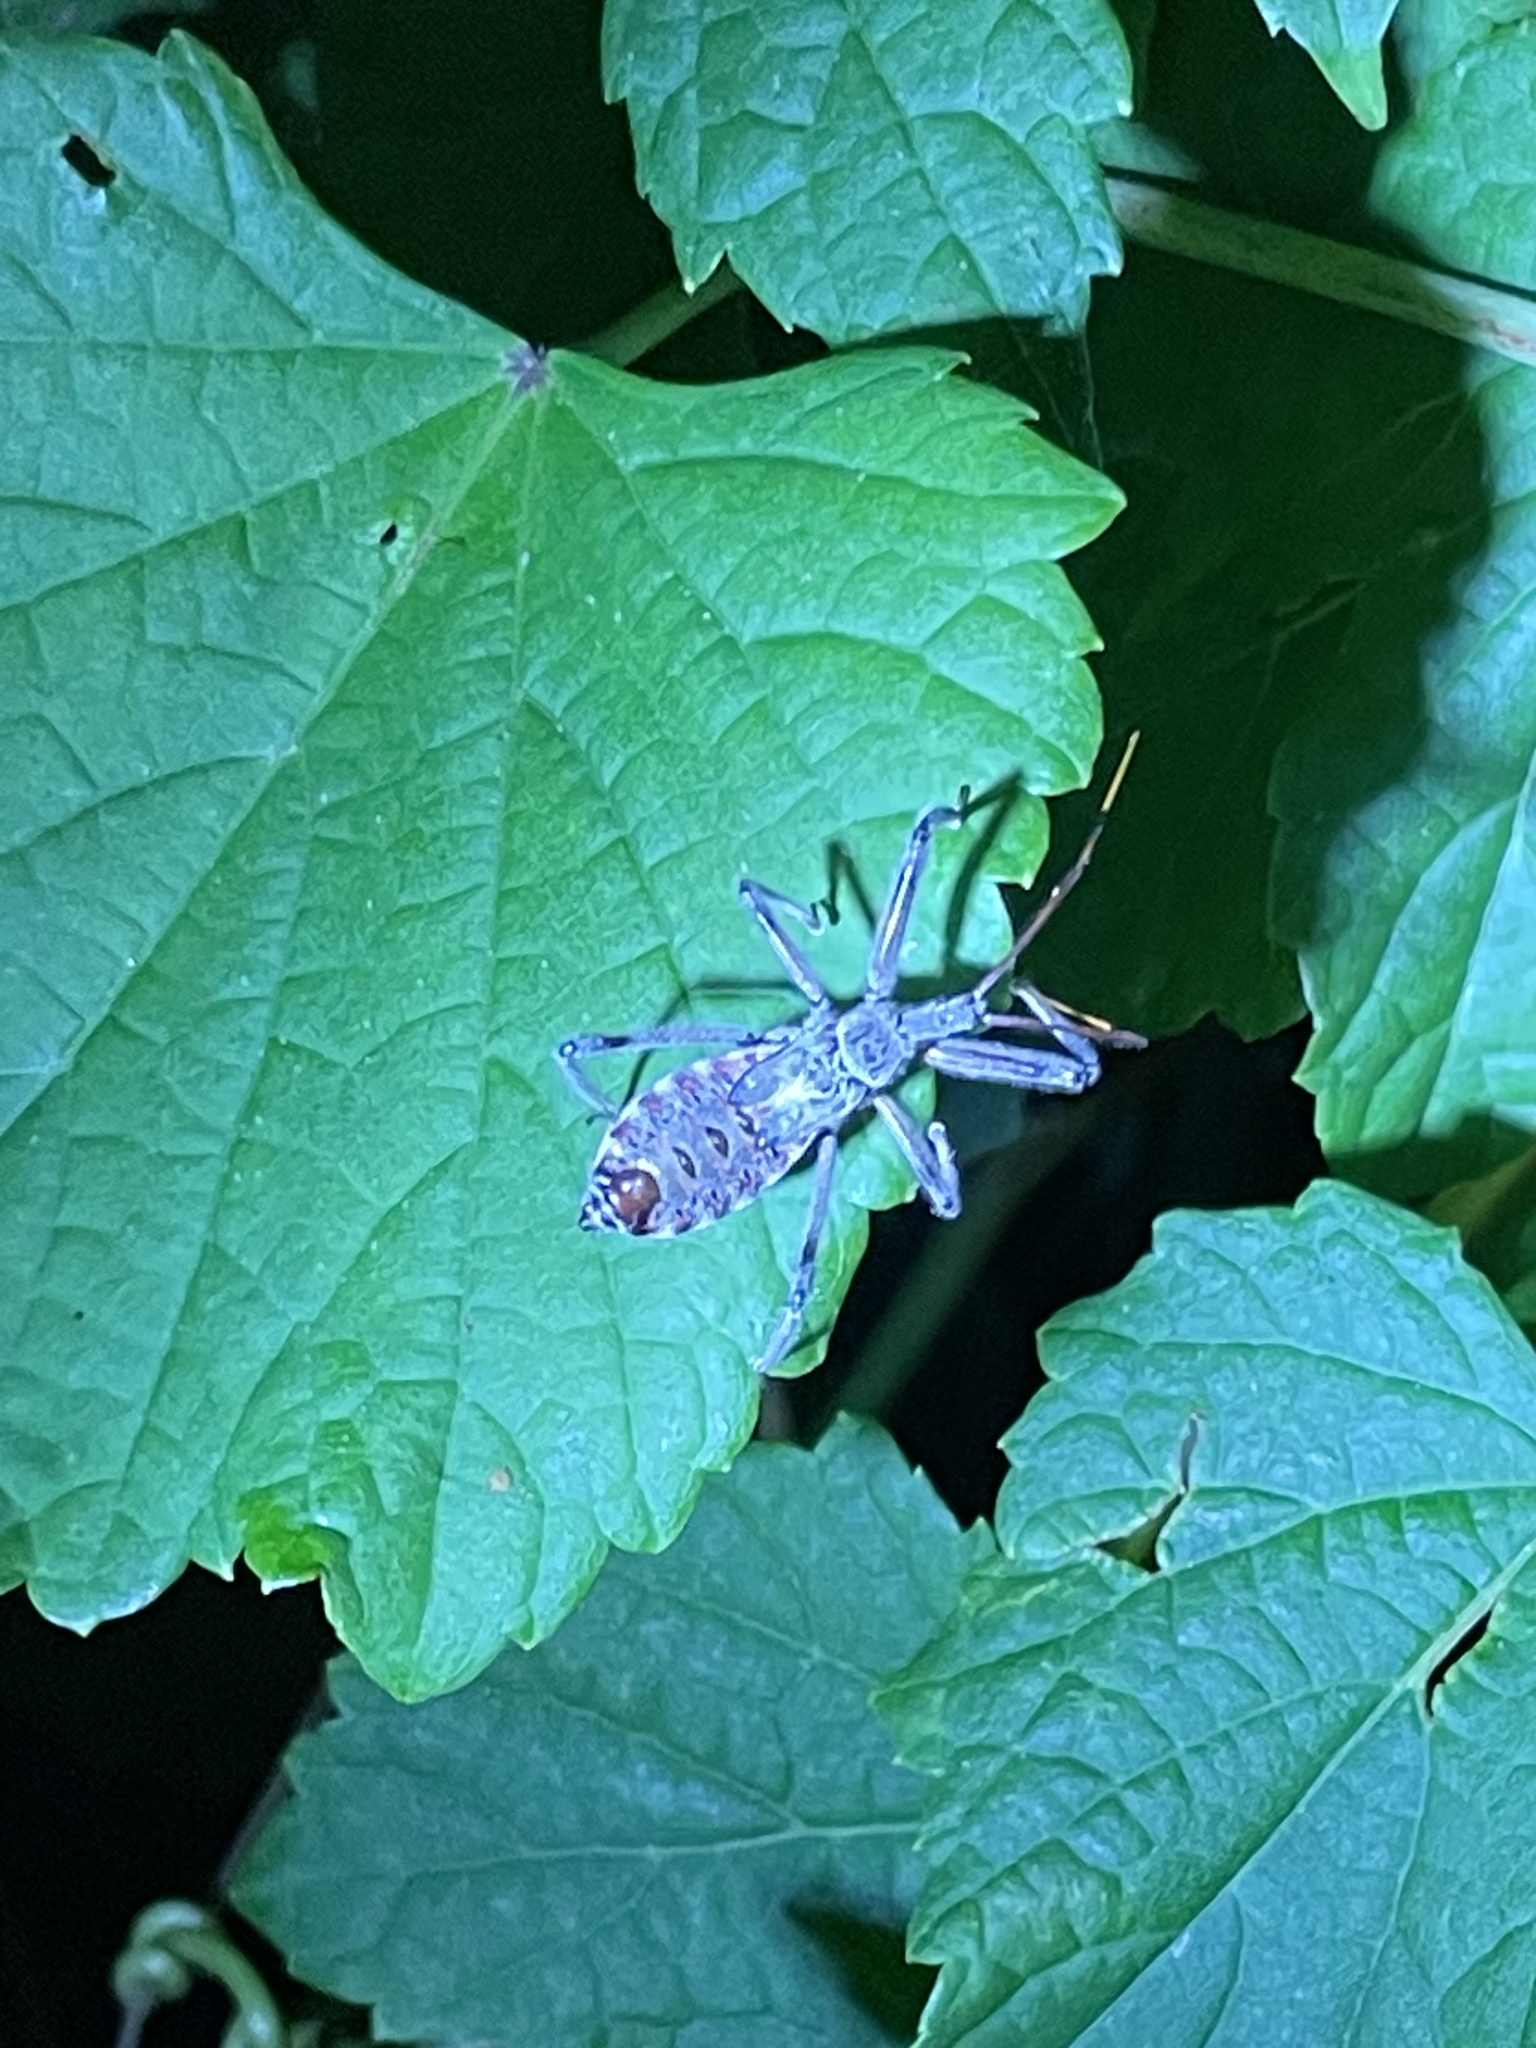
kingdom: Animalia
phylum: Arthropoda
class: Insecta
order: Hemiptera
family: Reduviidae
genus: Arilus
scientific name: Arilus cristatus
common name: North american wheel bug
